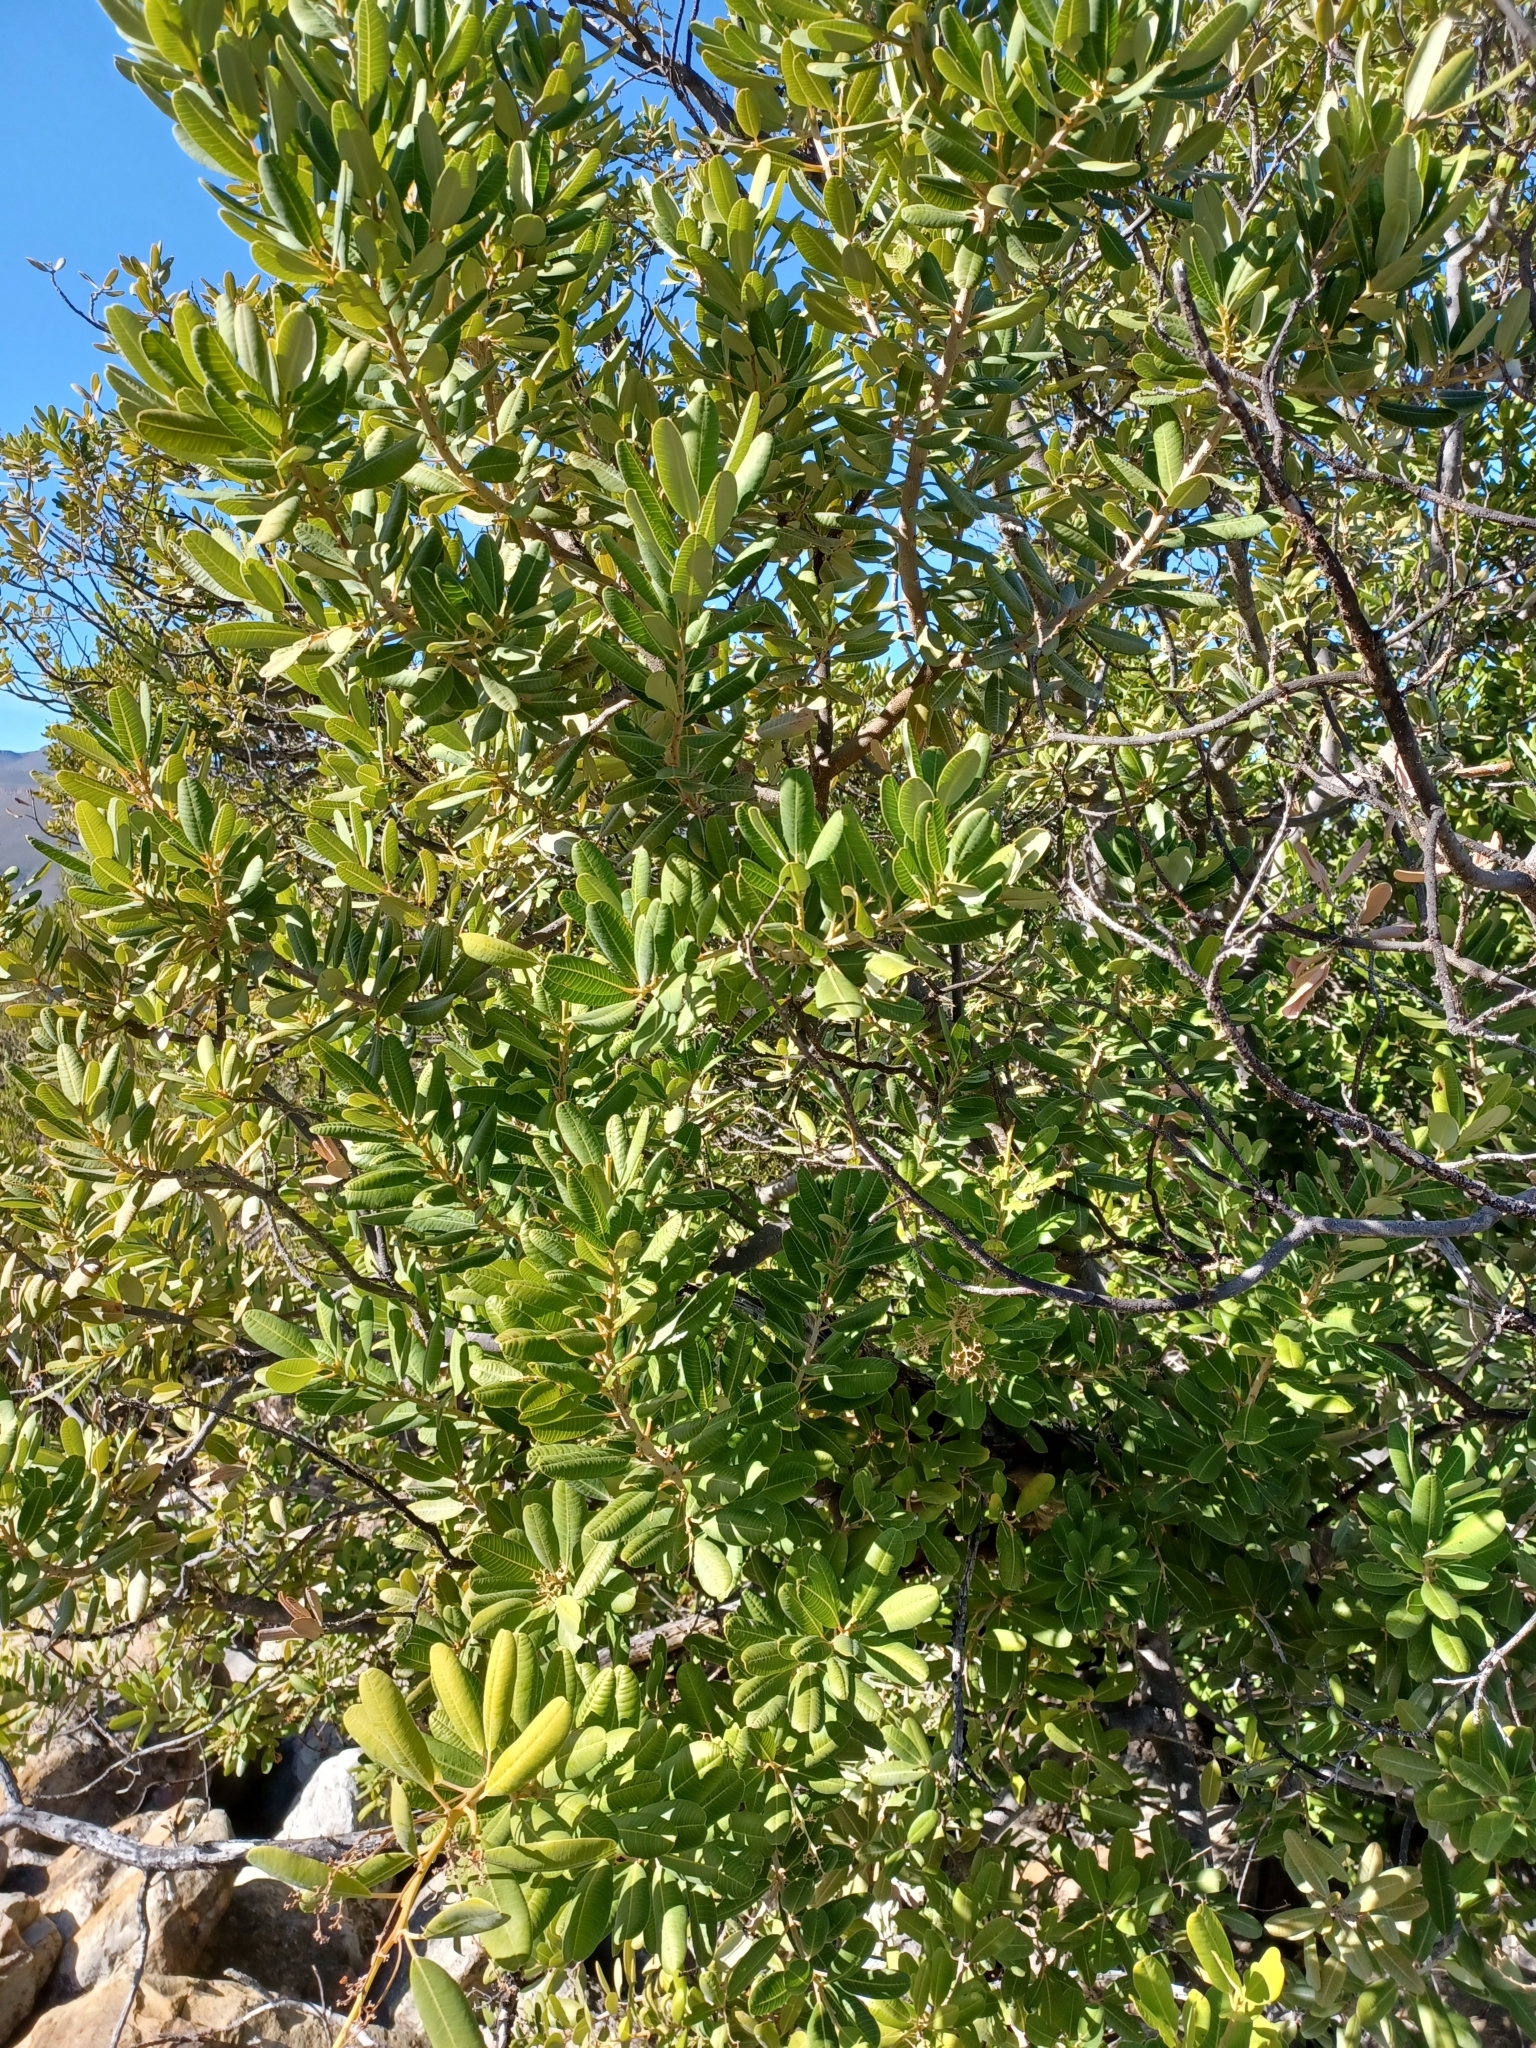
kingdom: Plantae
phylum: Tracheophyta
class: Magnoliopsida
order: Sapindales
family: Anacardiaceae
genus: Heeria
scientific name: Heeria argentea
